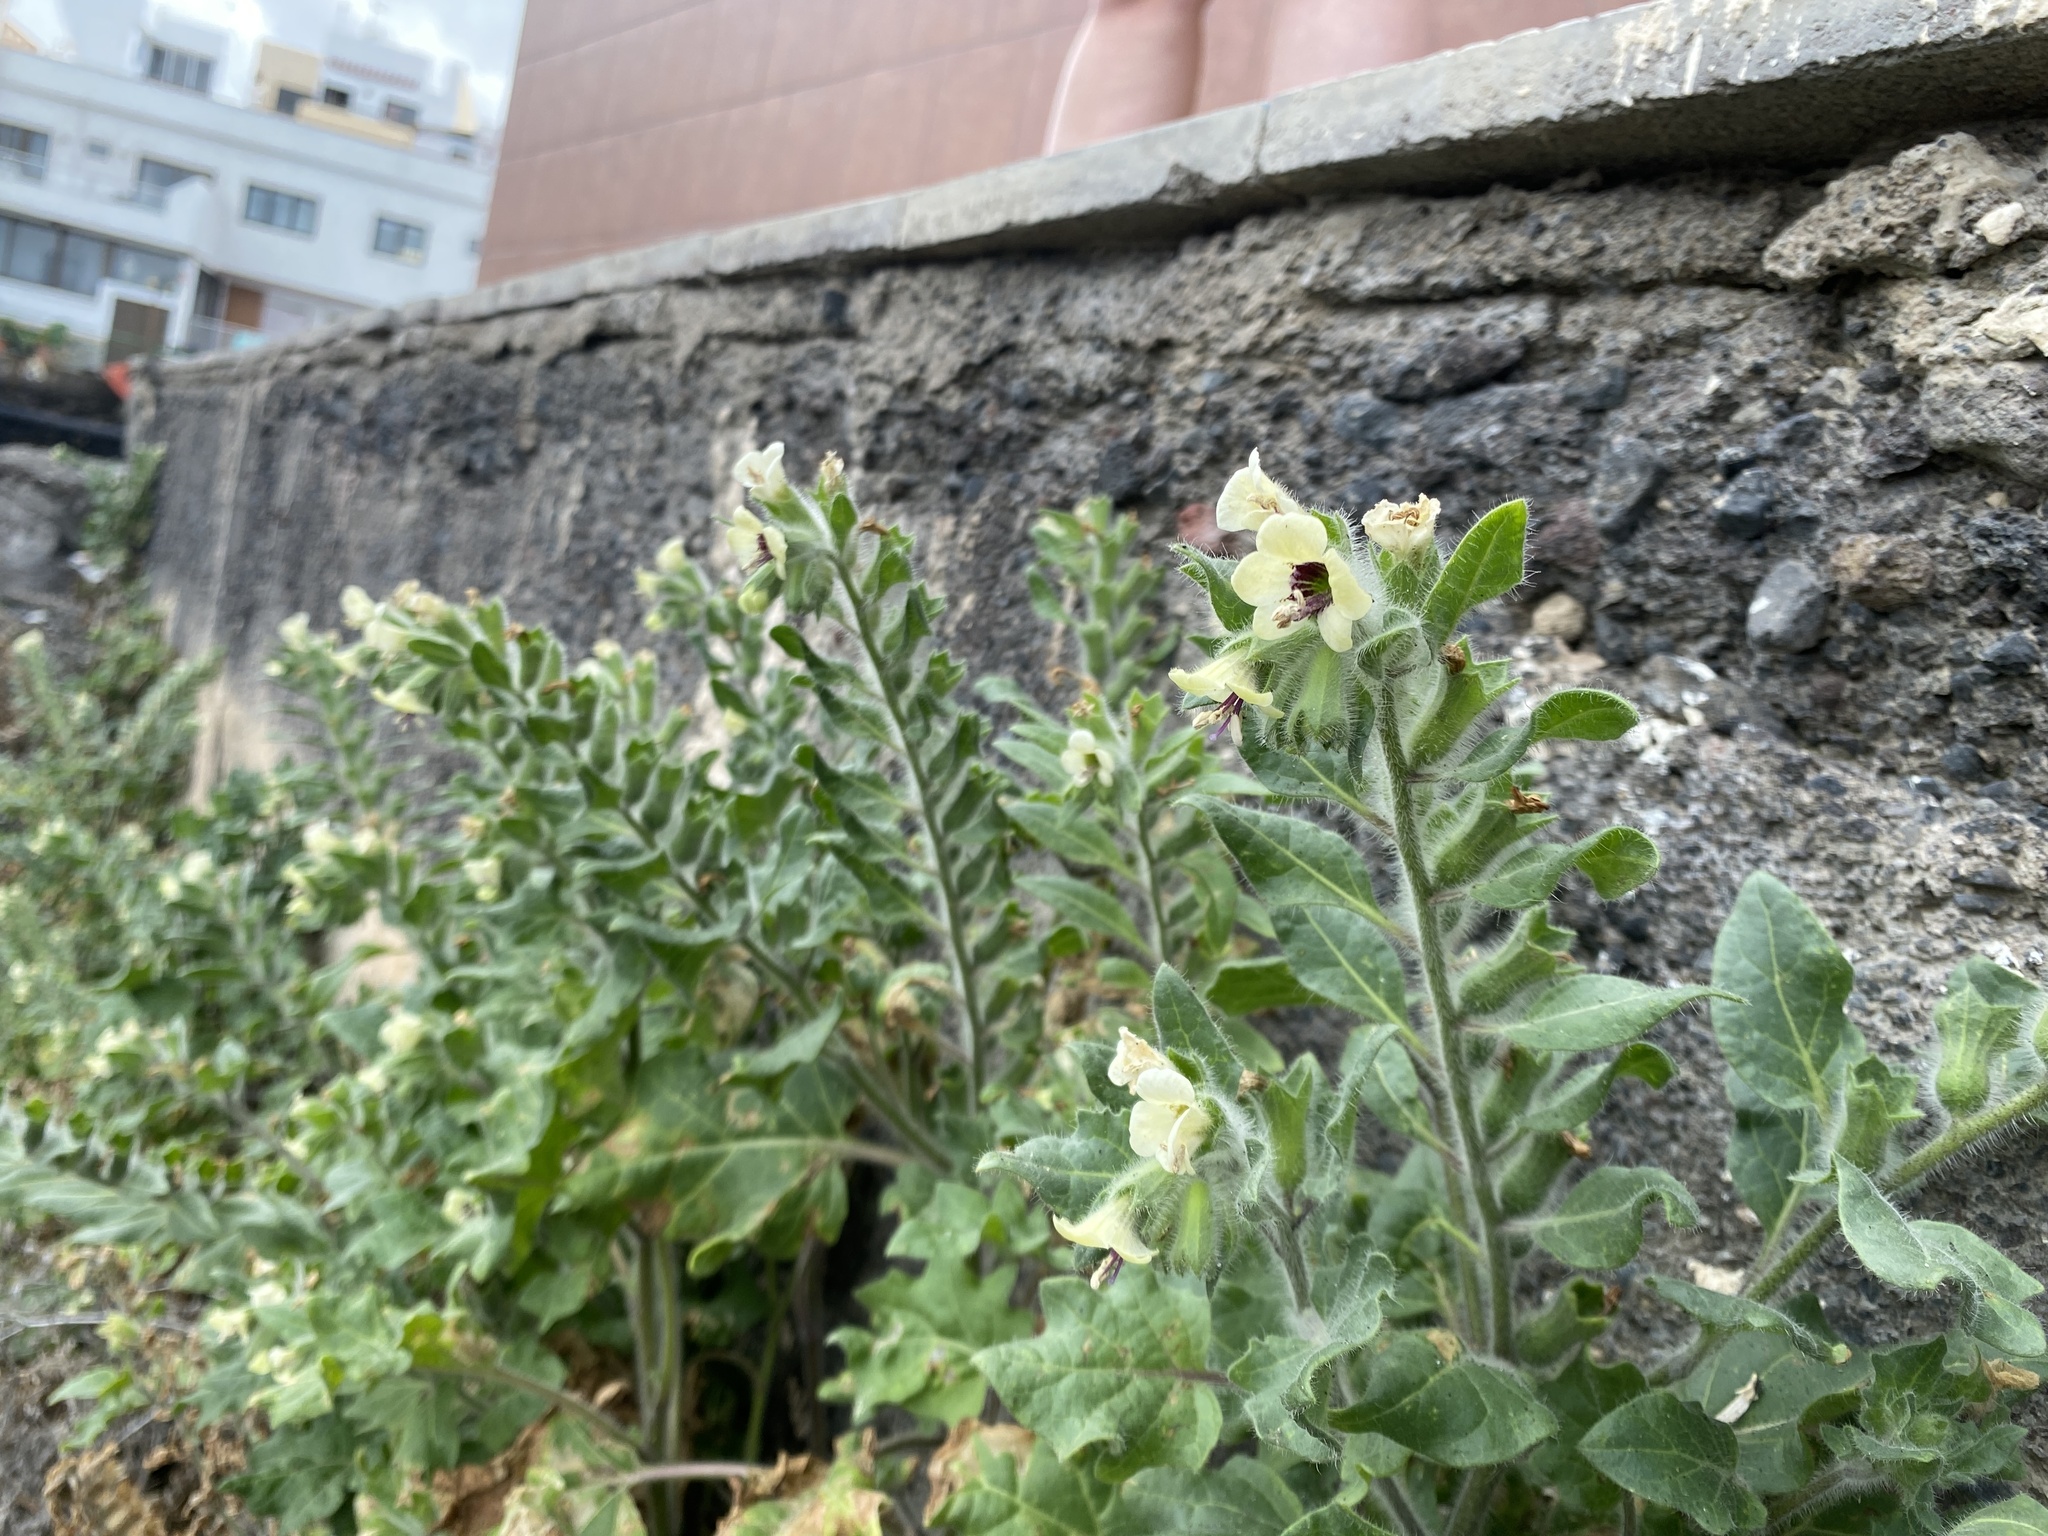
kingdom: Plantae
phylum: Tracheophyta
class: Magnoliopsida
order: Solanales
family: Solanaceae
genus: Hyoscyamus
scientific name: Hyoscyamus albus
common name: White henbane
